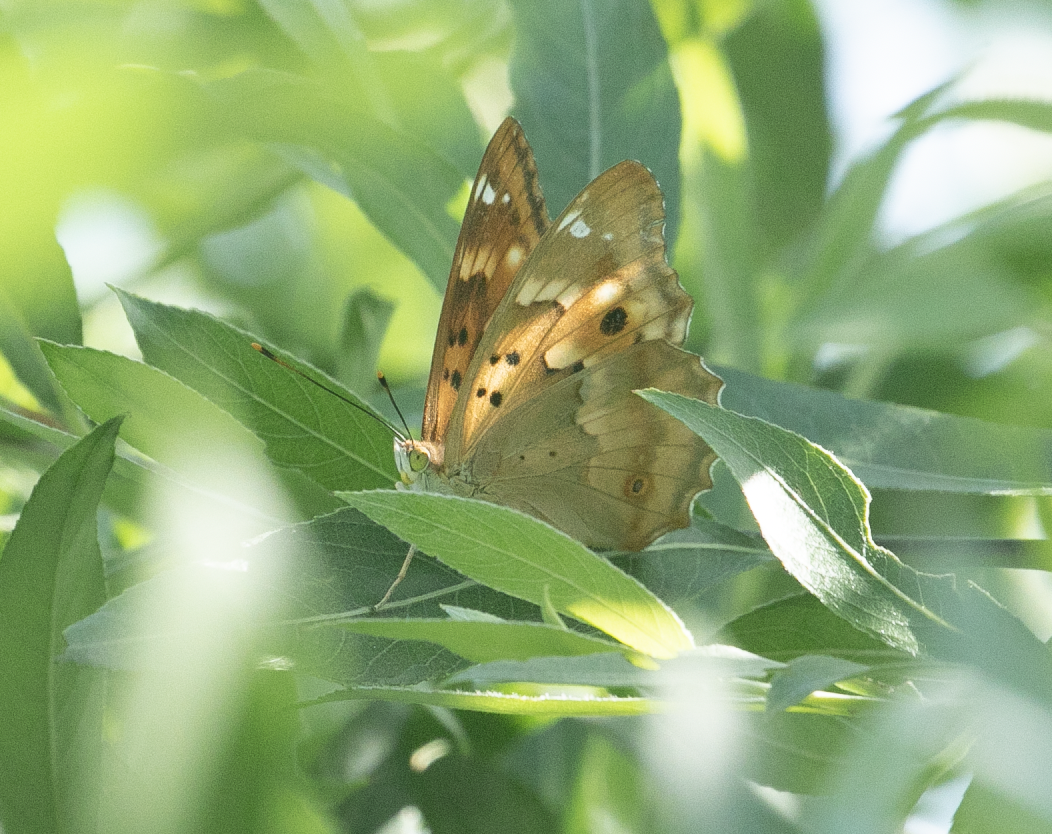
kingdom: Animalia
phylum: Arthropoda
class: Insecta
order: Lepidoptera
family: Nymphalidae
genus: Apatura
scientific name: Apatura ilia
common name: Lesser purple emperor
